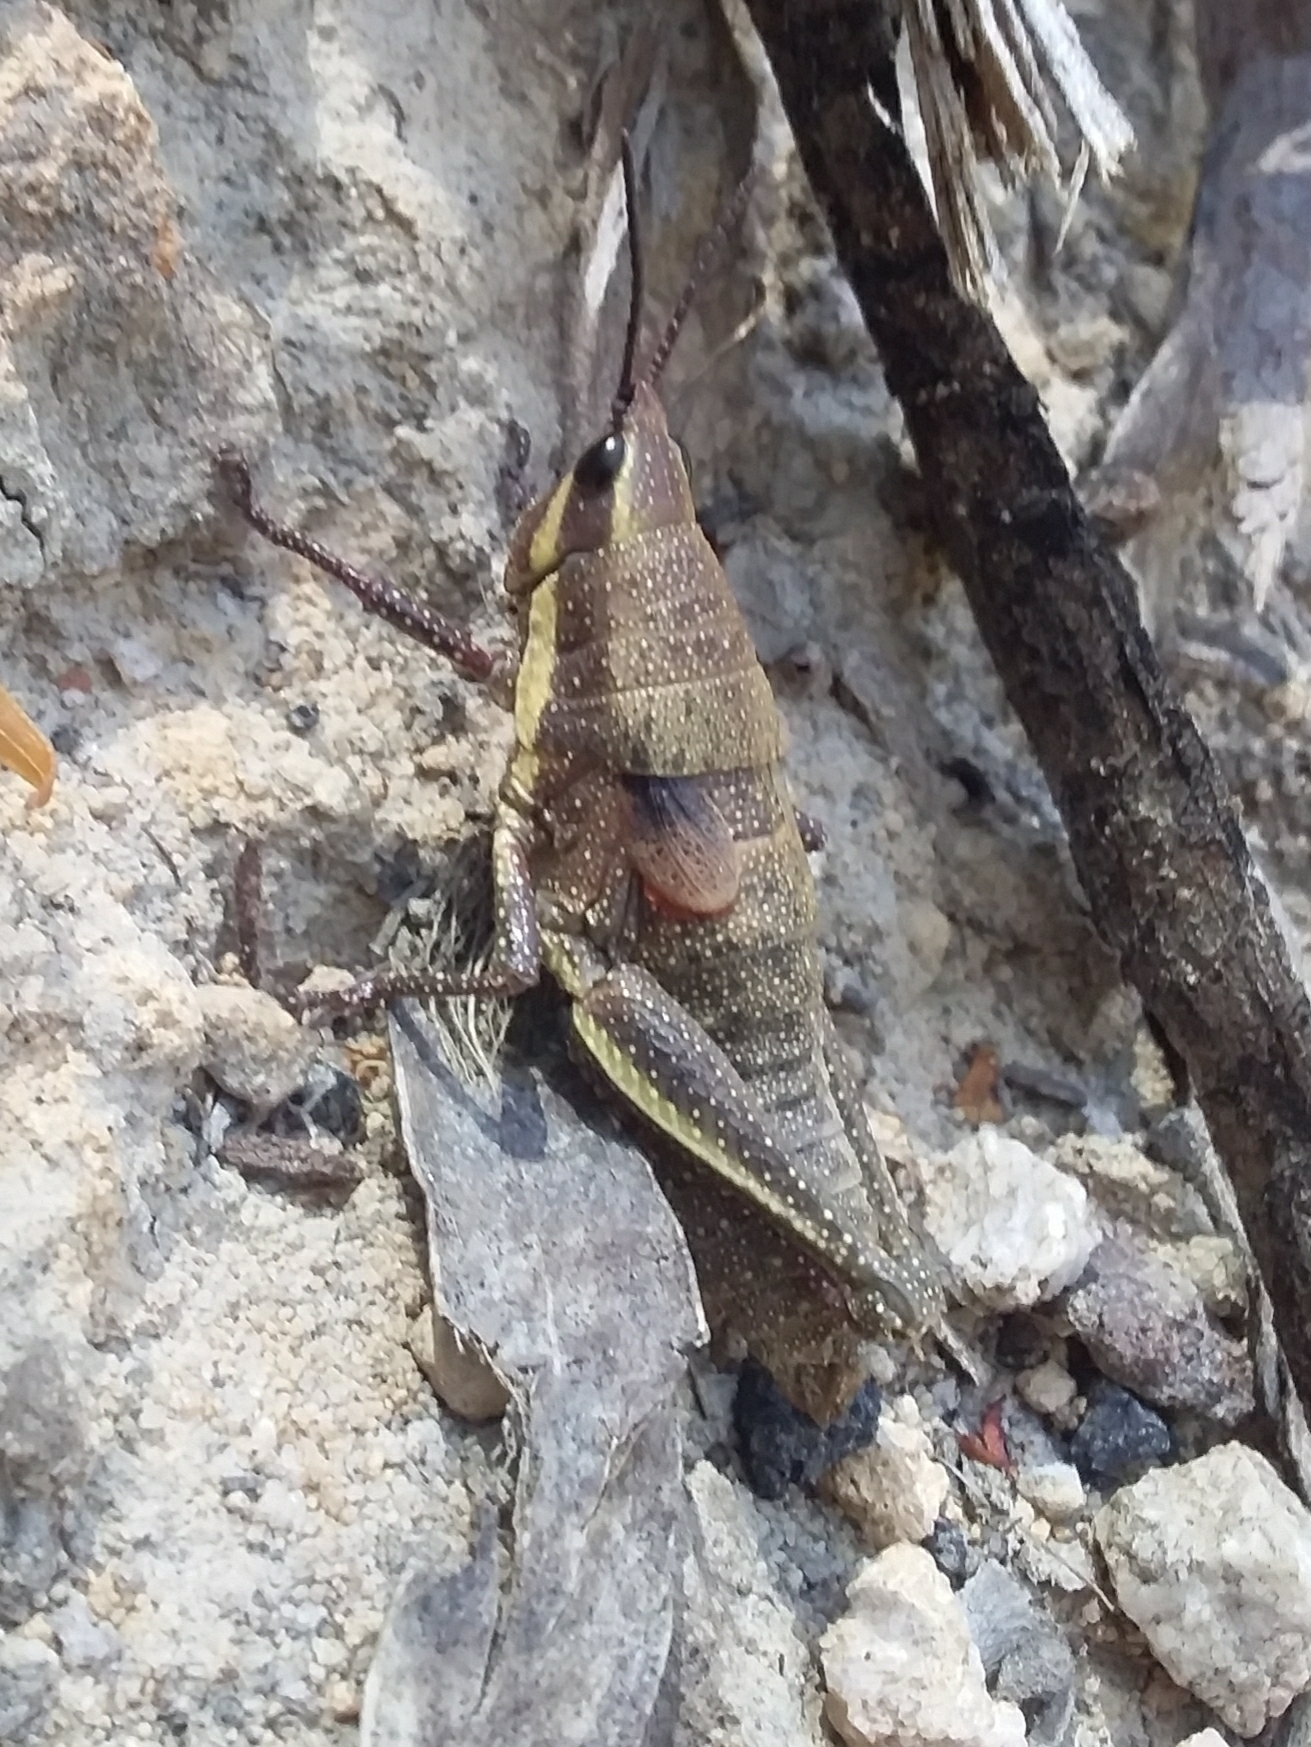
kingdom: Animalia
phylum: Arthropoda
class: Insecta
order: Orthoptera
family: Pyrgomorphidae
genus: Monistria
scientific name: Monistria discrepans
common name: Common pyrgomorph
